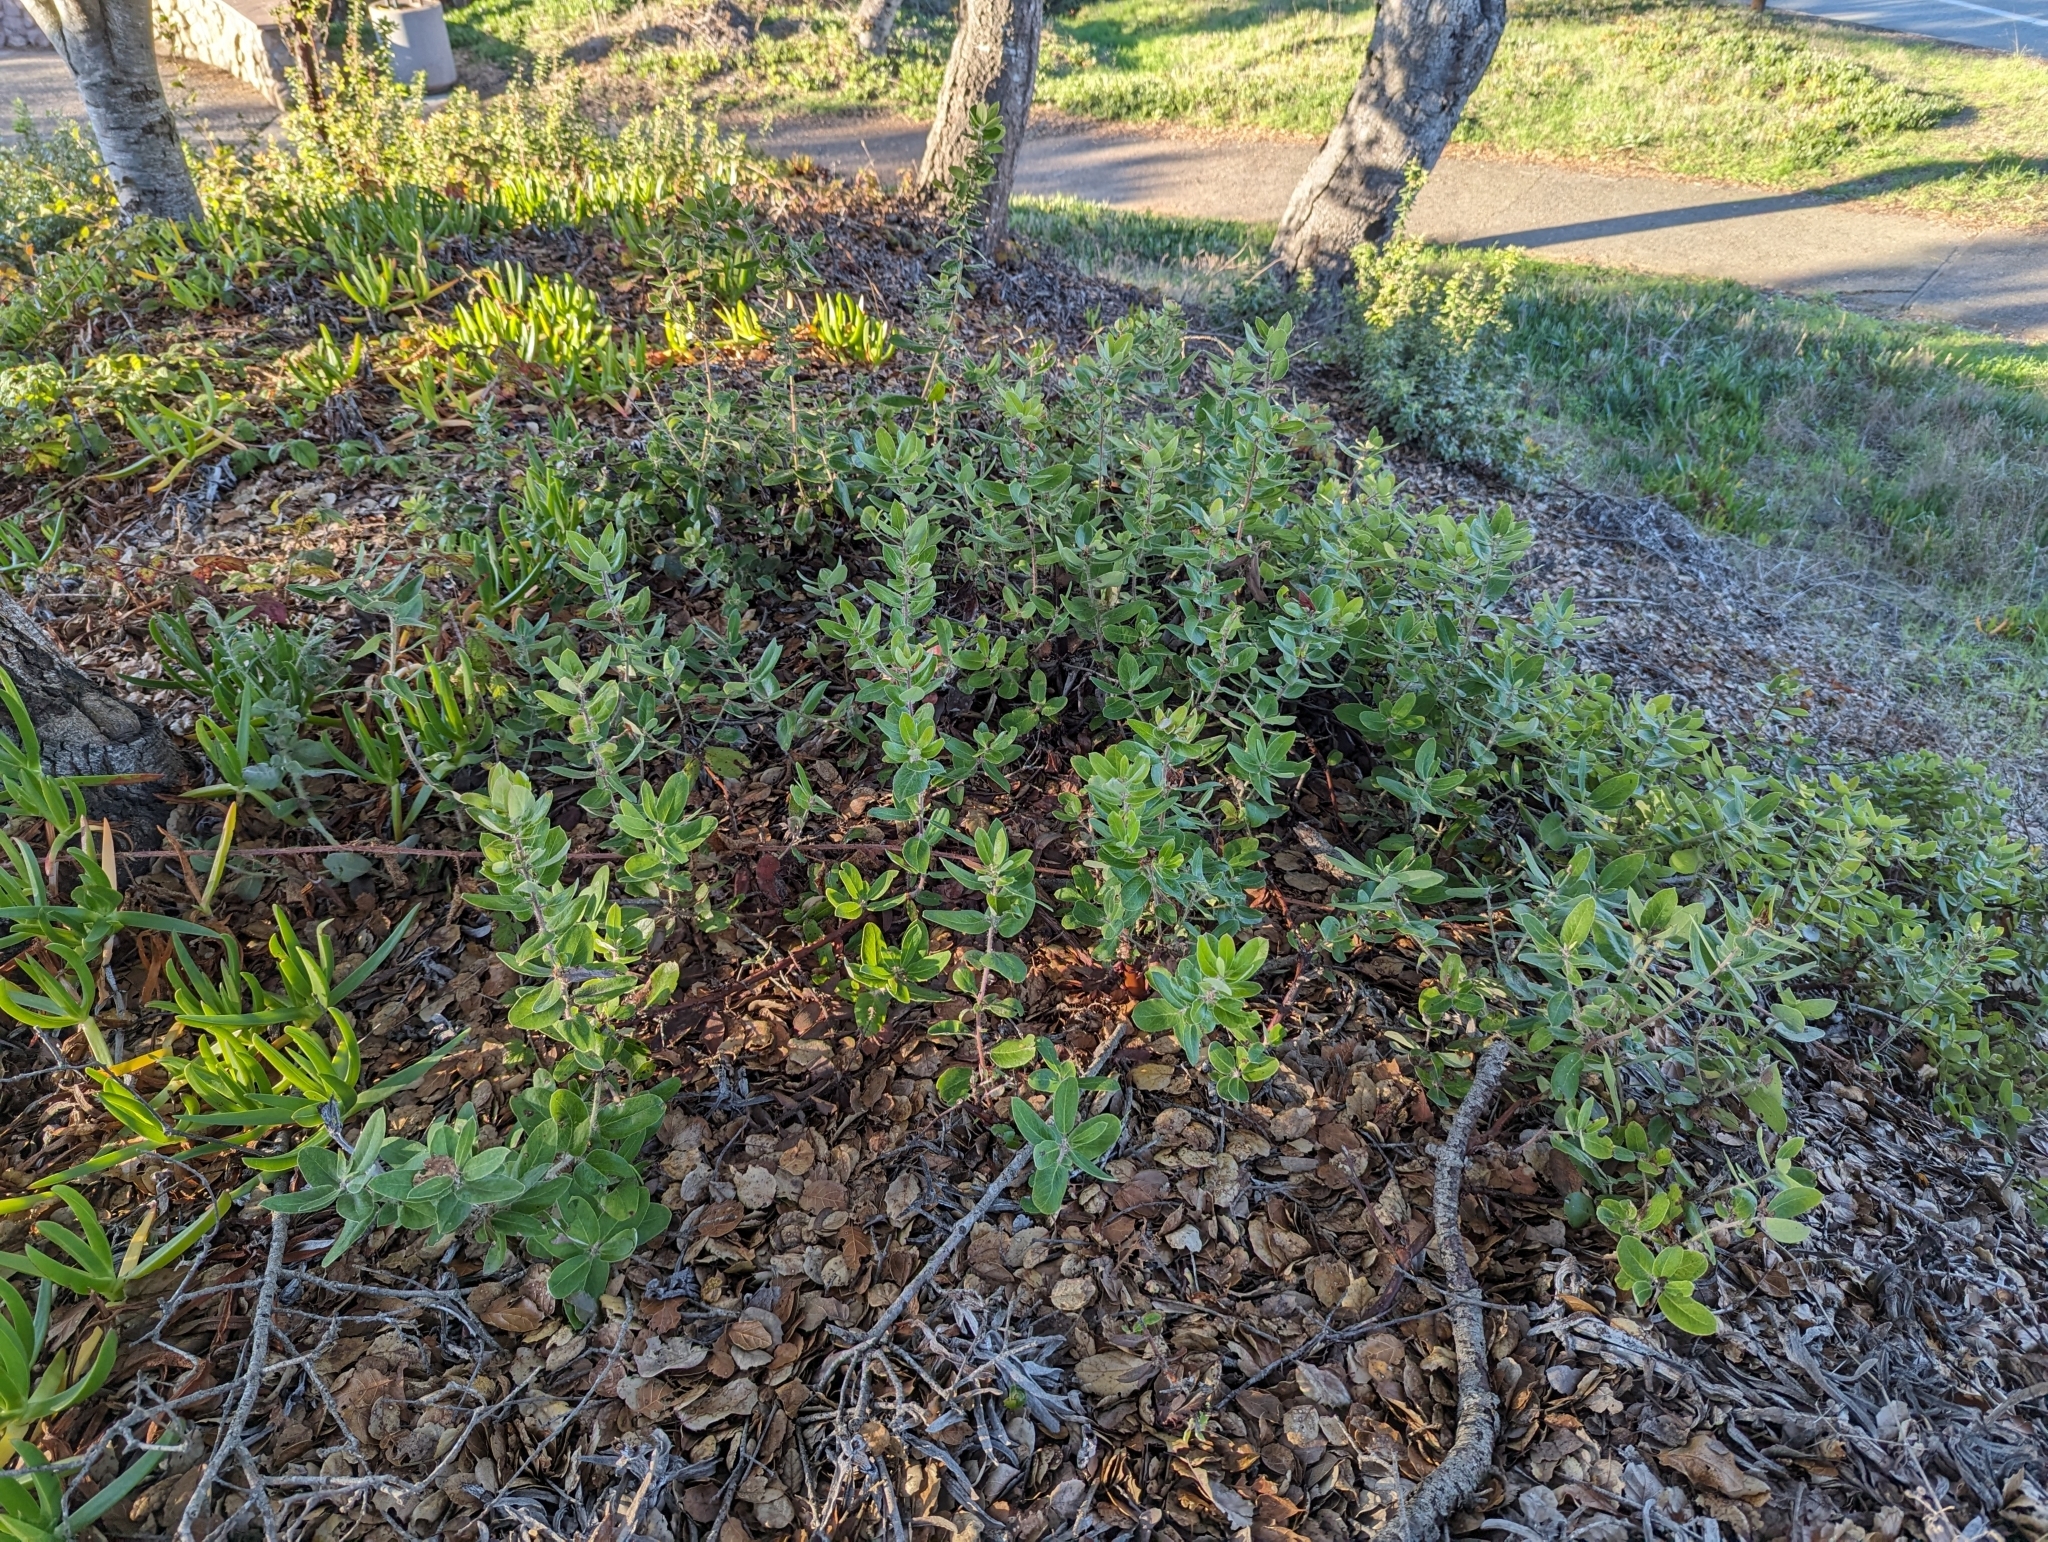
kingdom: Plantae
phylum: Tracheophyta
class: Magnoliopsida
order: Ericales
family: Ericaceae
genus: Arctostaphylos
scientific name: Arctostaphylos crustacea
